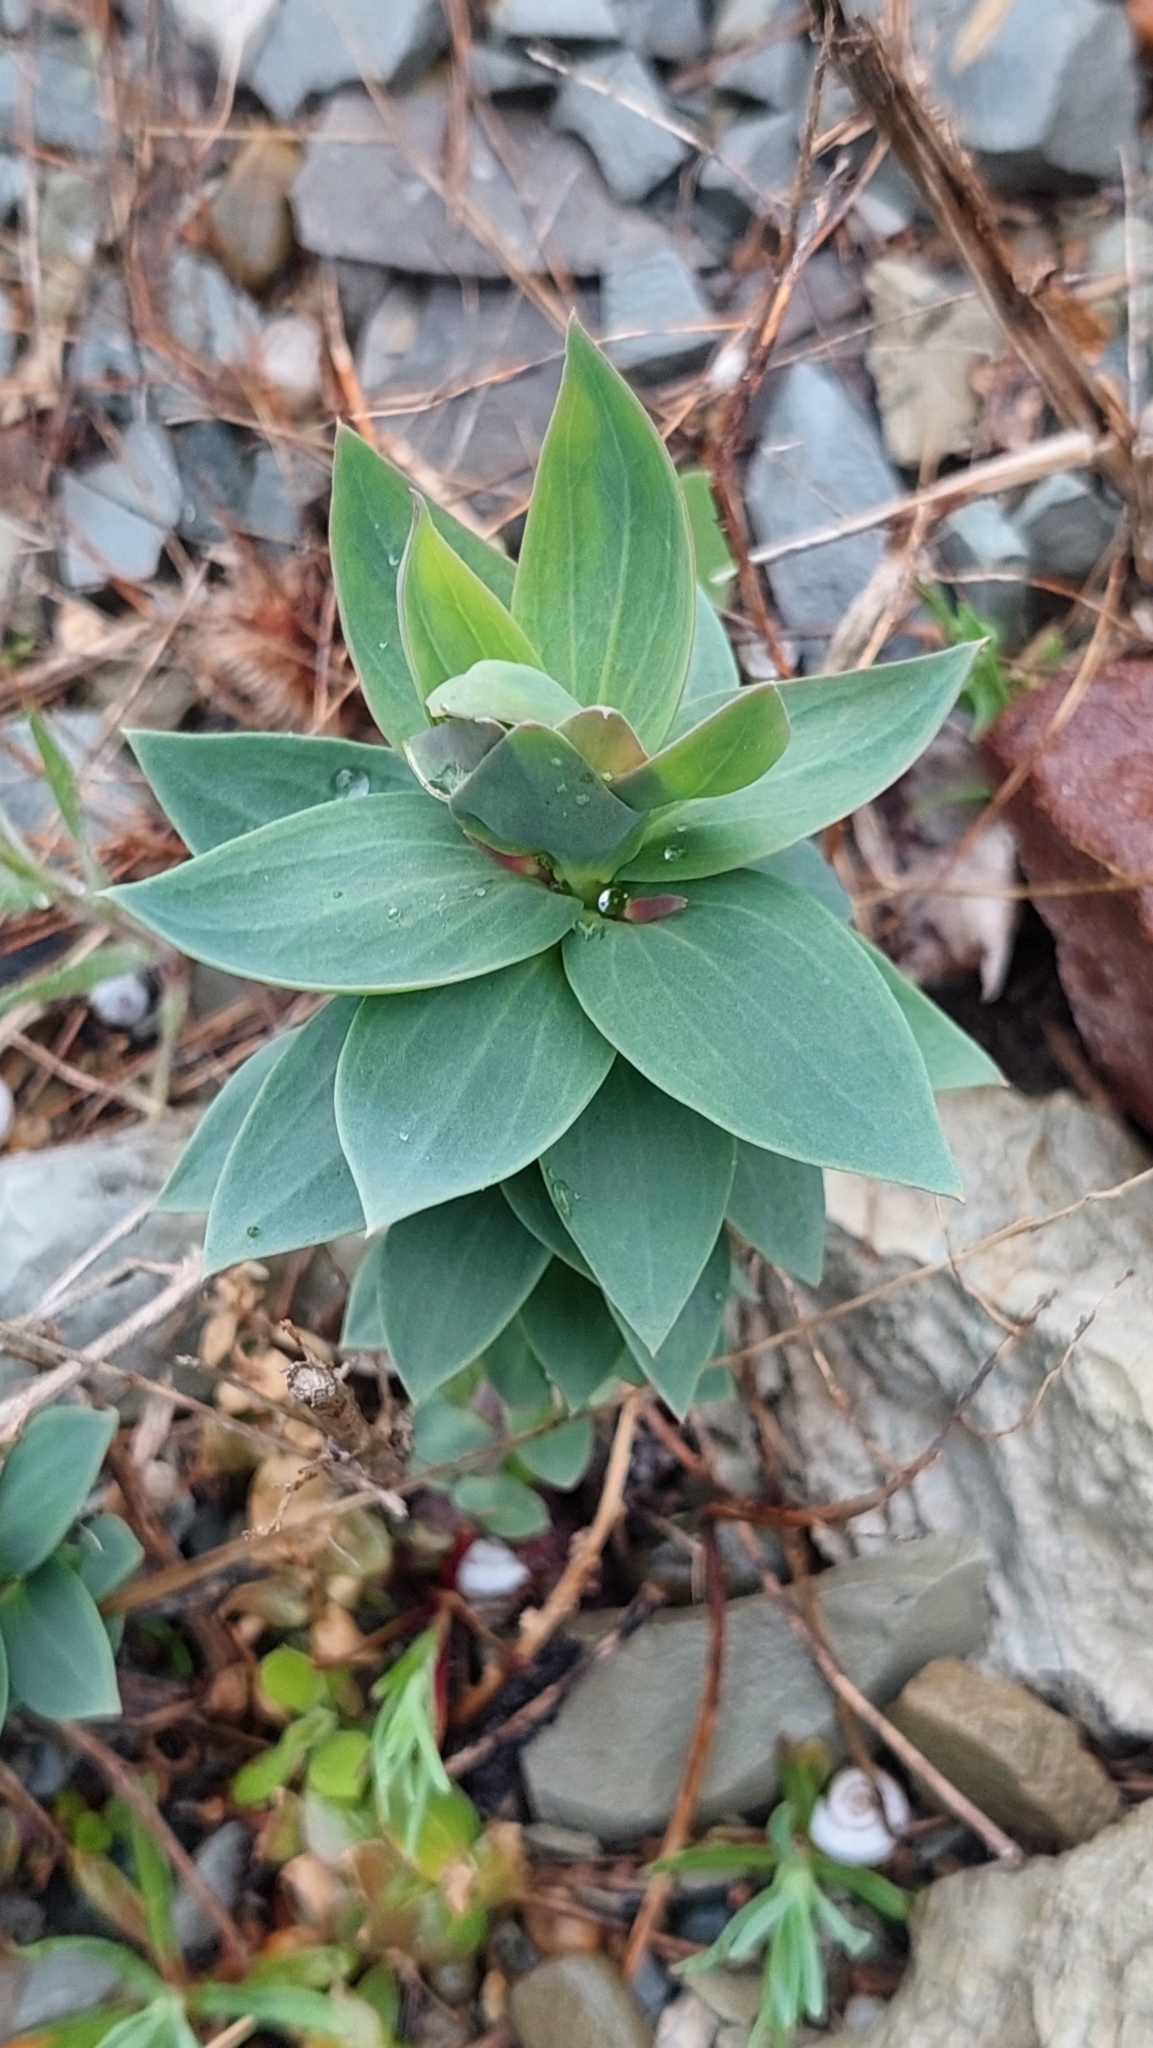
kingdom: Plantae
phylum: Tracheophyta
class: Magnoliopsida
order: Lamiales
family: Plantaginaceae
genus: Linaria
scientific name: Linaria genistifolia
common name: Broomleaf toadflax
